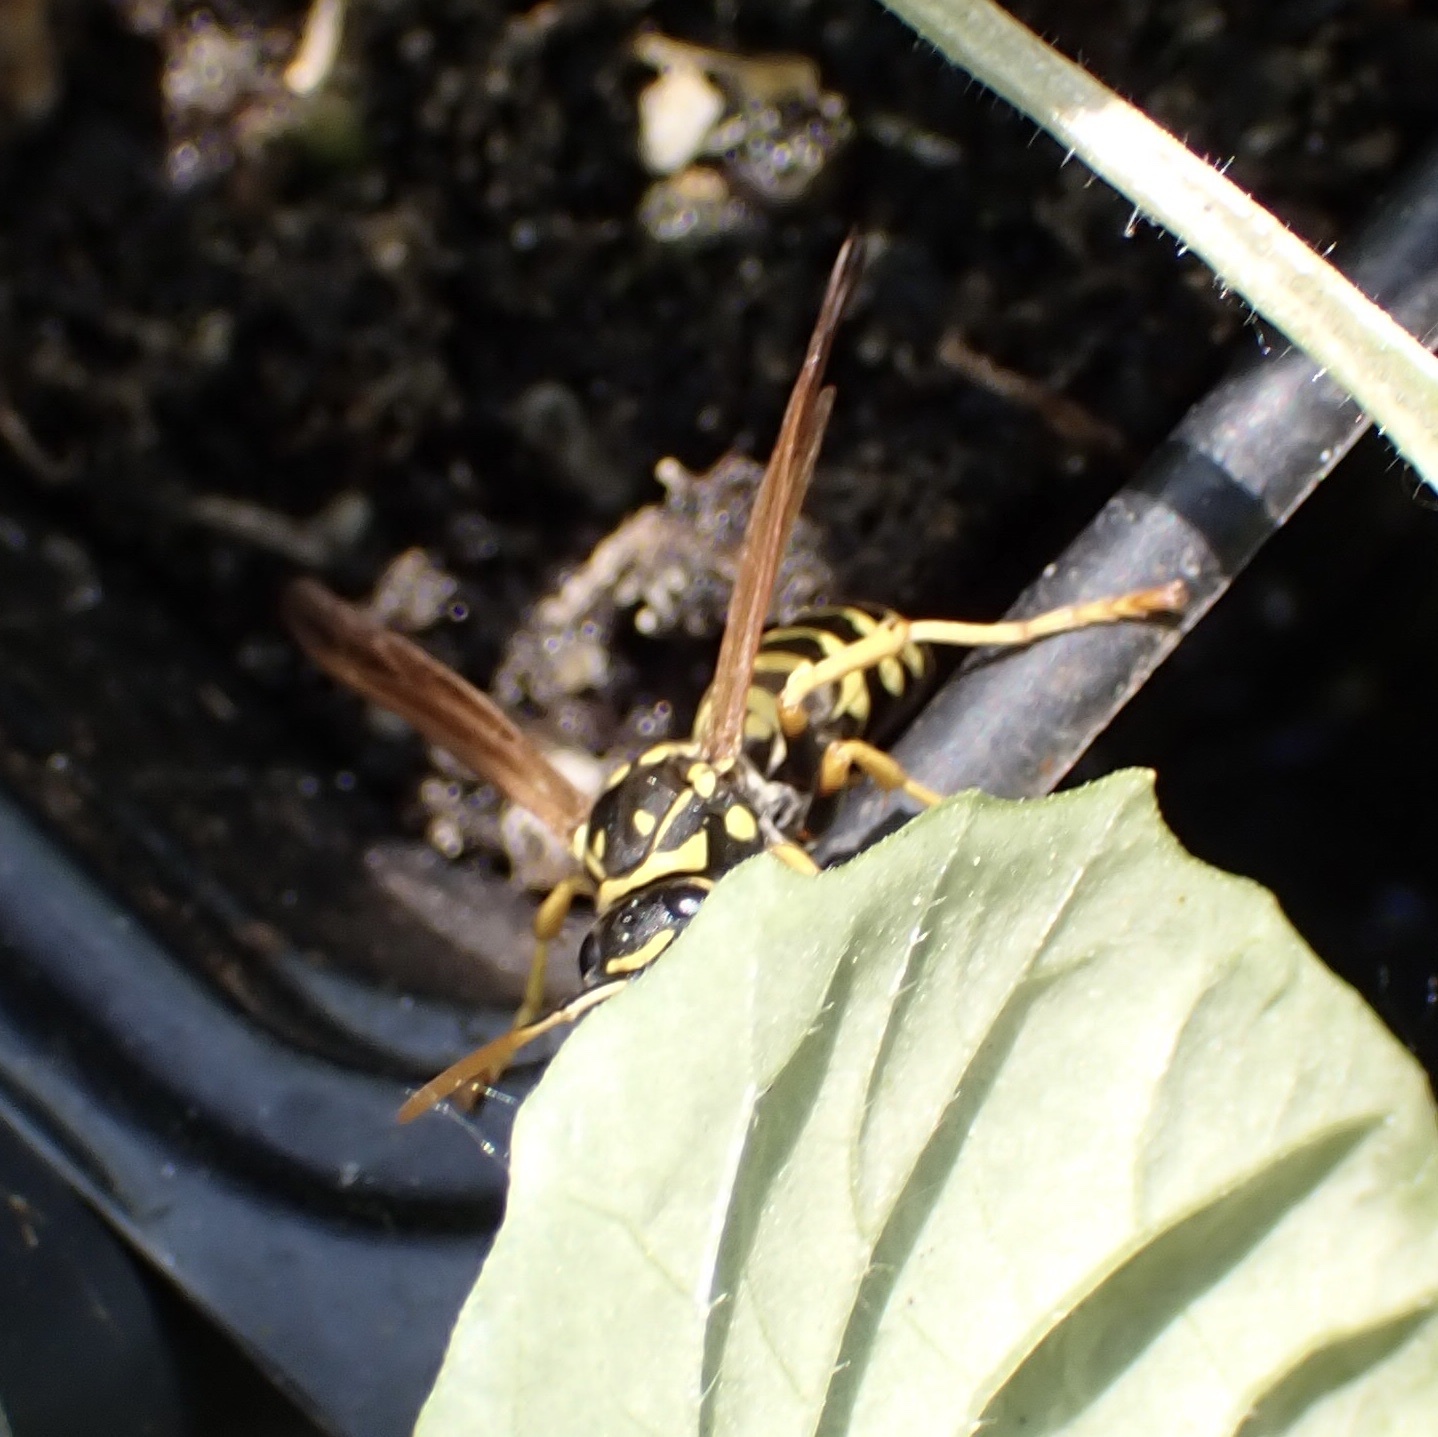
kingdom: Animalia
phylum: Arthropoda
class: Insecta
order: Hymenoptera
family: Eumenidae
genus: Polistes
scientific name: Polistes dominula
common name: Paper wasp
